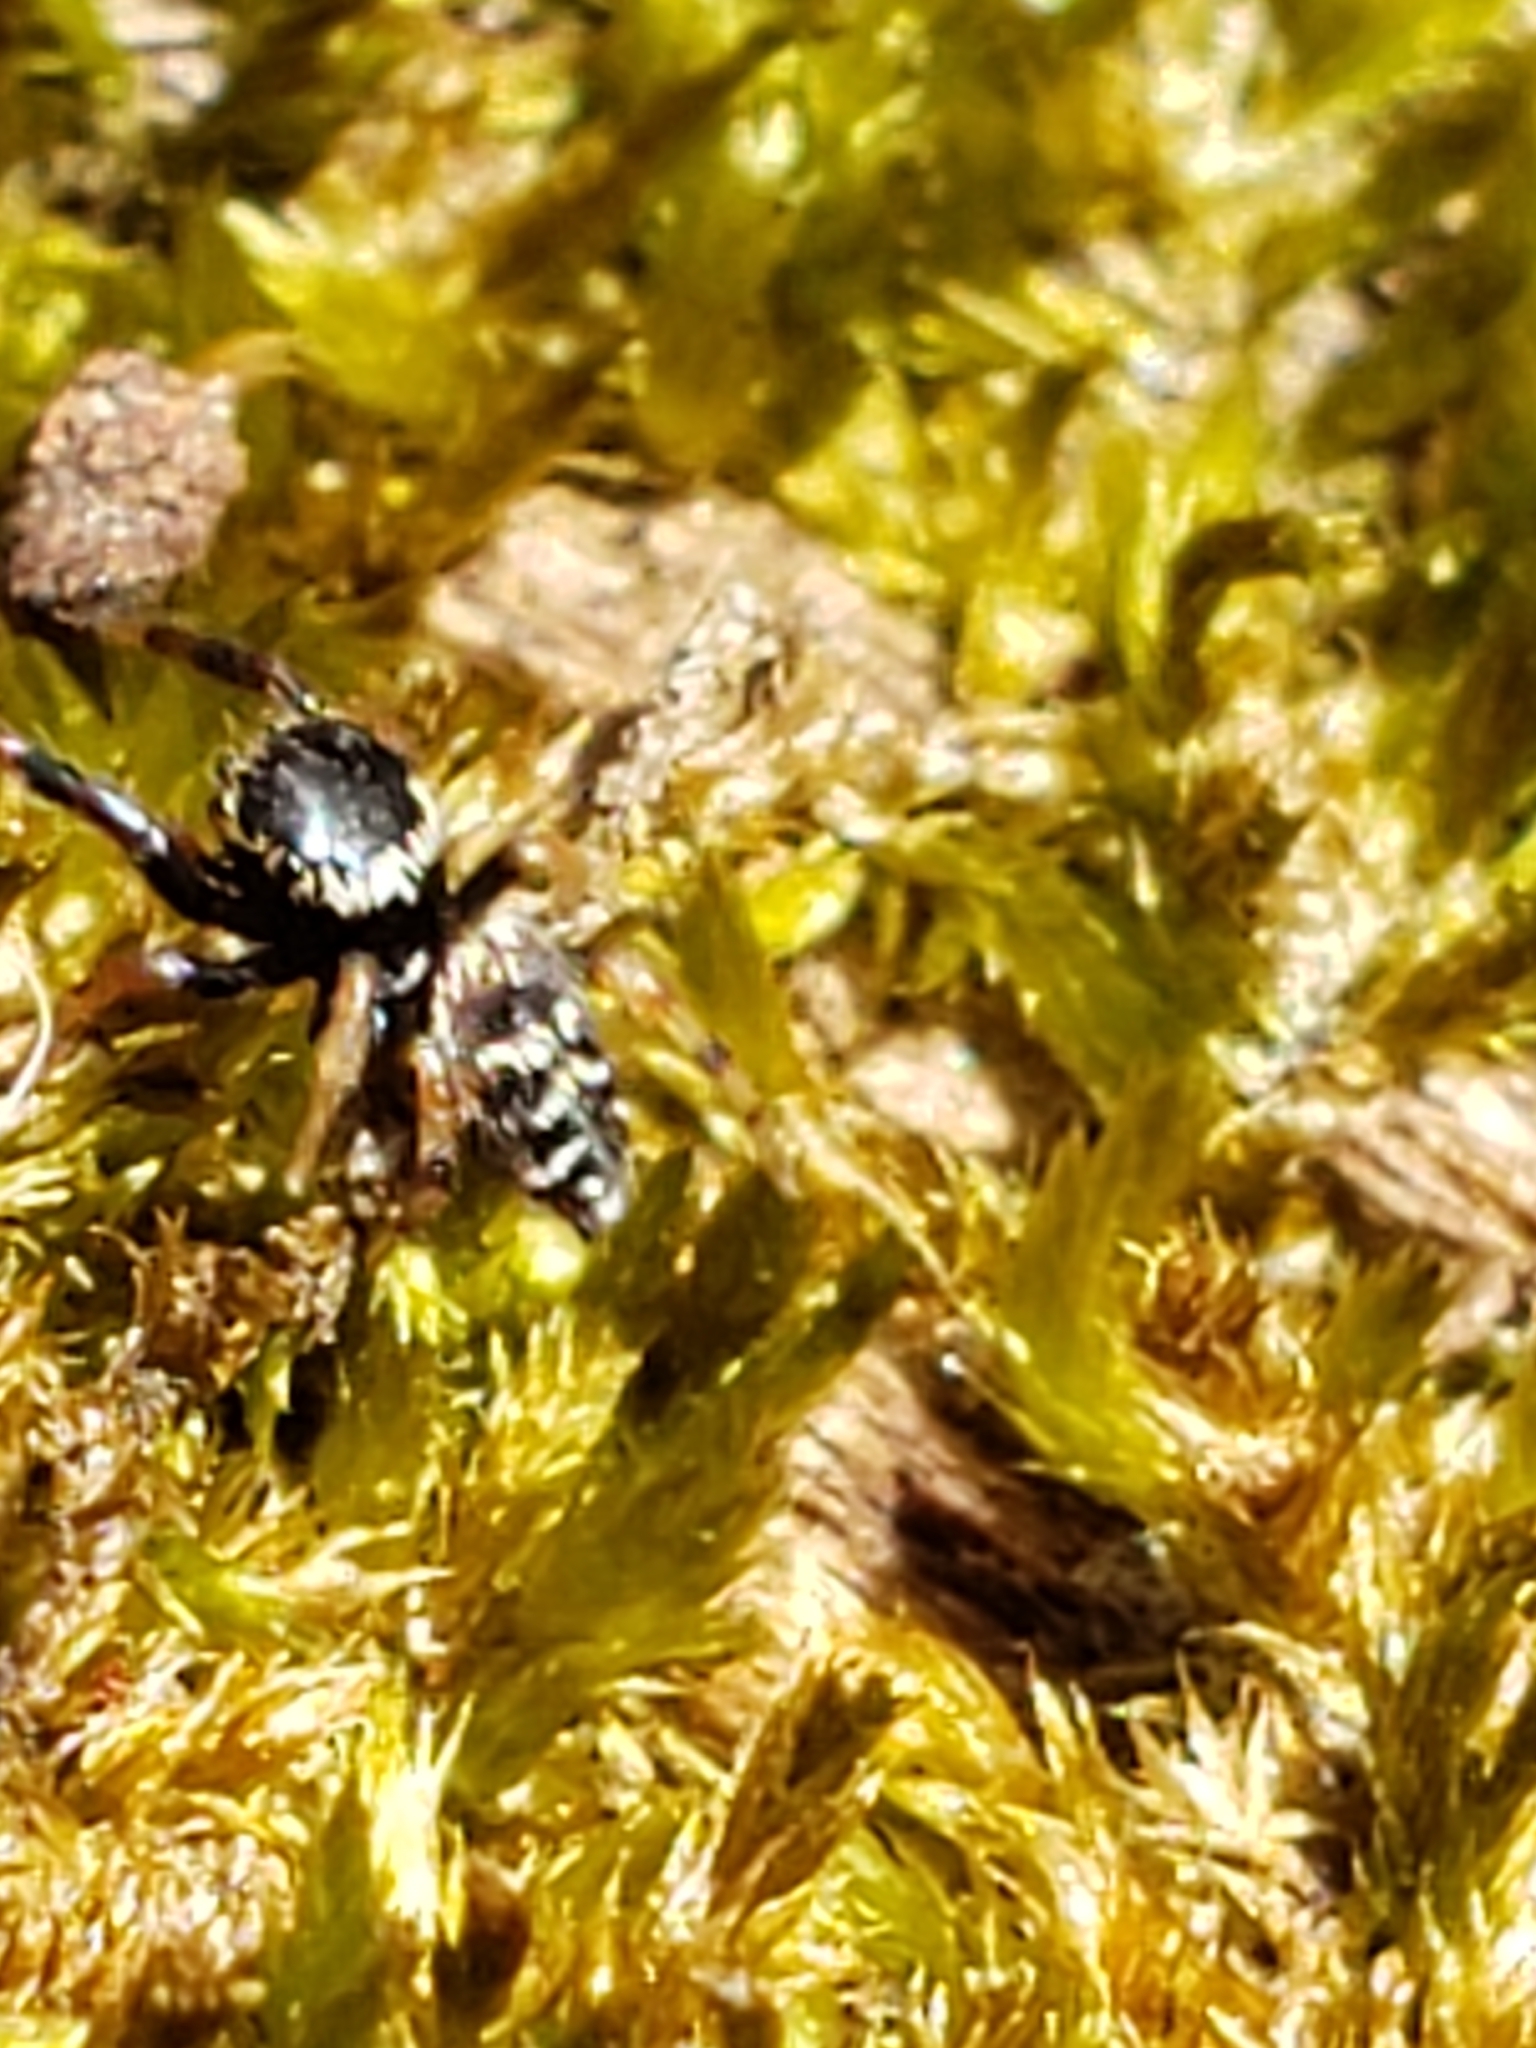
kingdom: Animalia
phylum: Arthropoda
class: Arachnida
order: Araneae
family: Salticidae
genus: Paraphidippus
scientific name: Paraphidippus aurantius
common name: Jumping spiders
